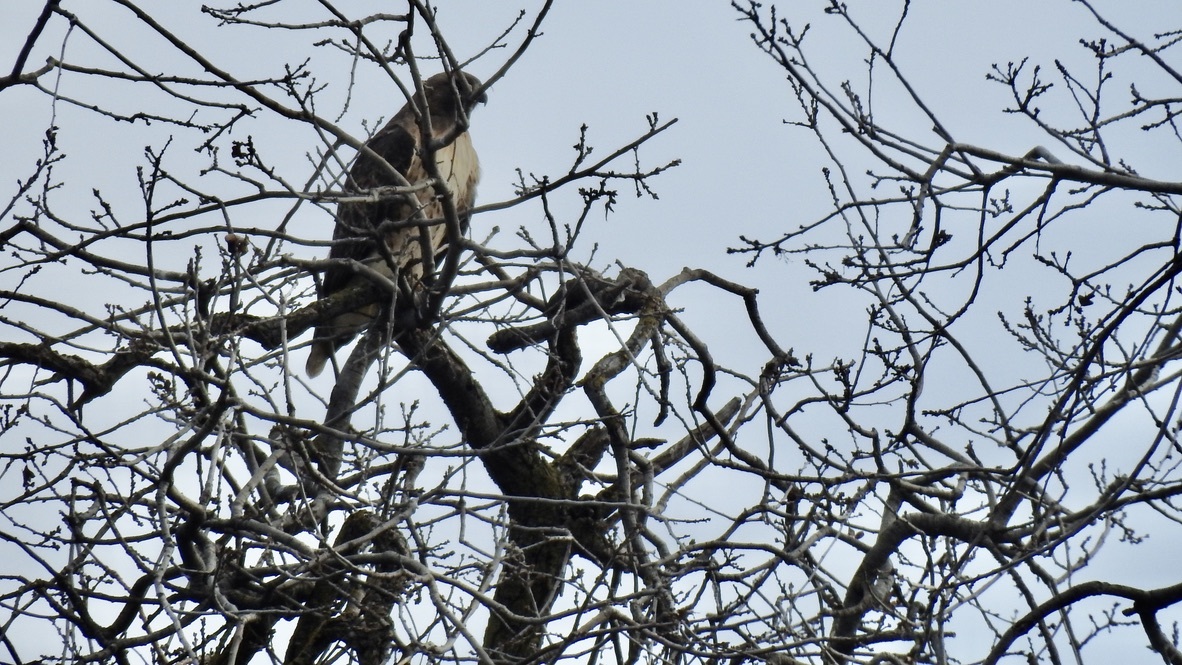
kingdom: Animalia
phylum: Chordata
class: Aves
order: Accipitriformes
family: Accipitridae
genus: Buteo
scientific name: Buteo jamaicensis
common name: Red-tailed hawk
